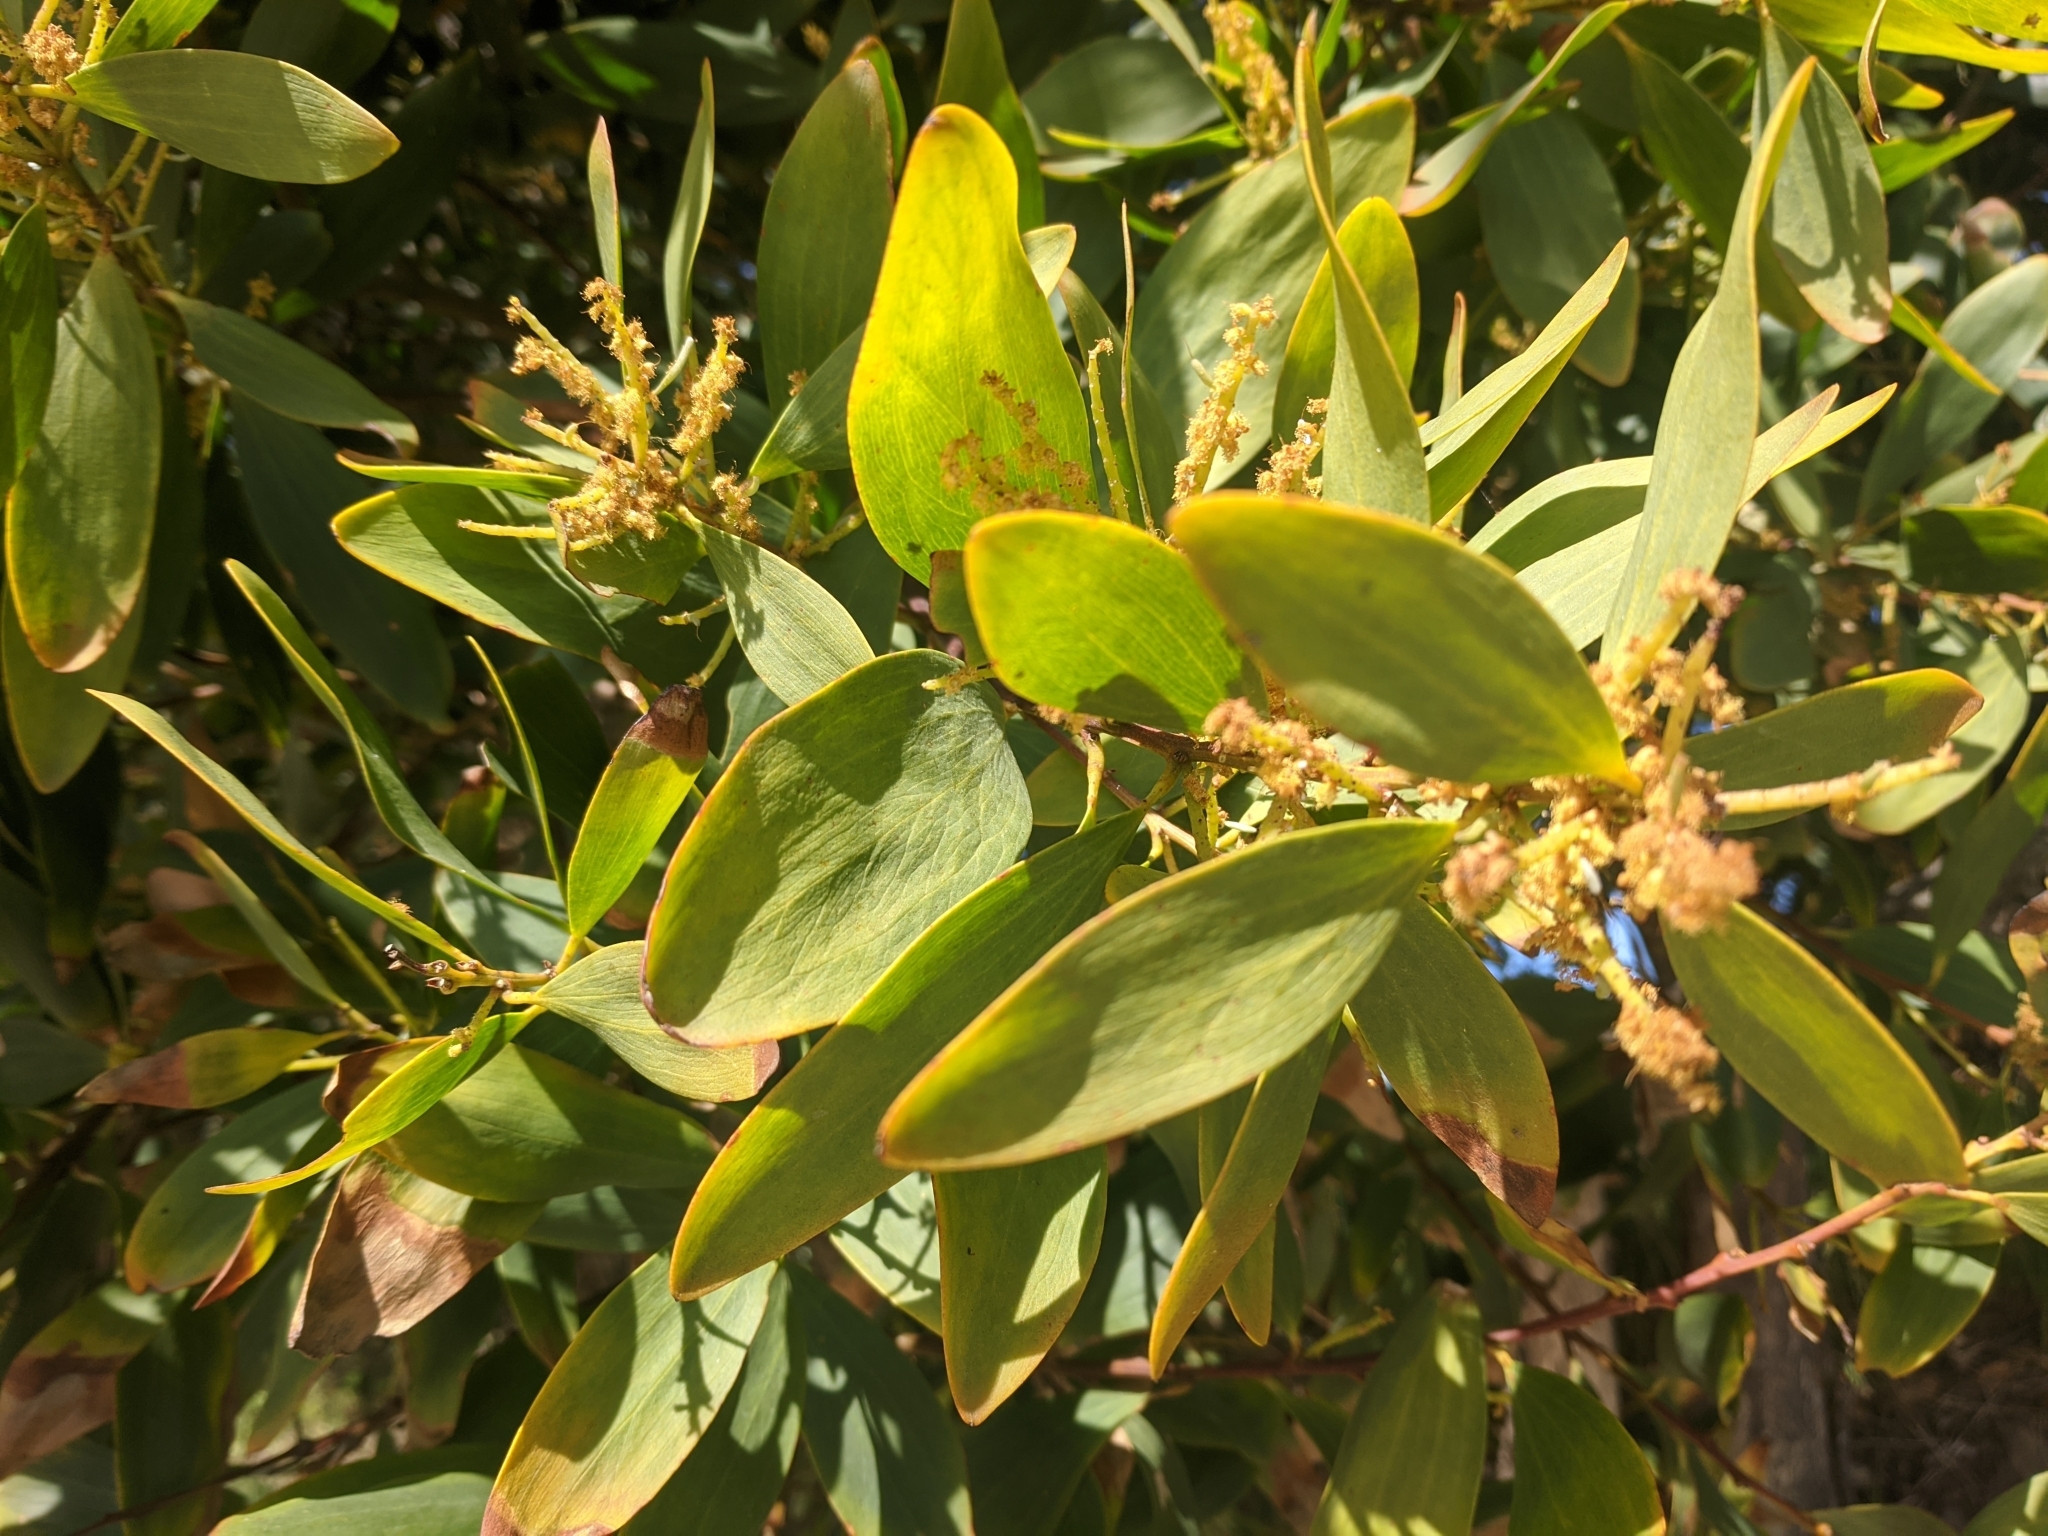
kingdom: Plantae
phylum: Tracheophyta
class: Magnoliopsida
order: Fabales
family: Fabaceae
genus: Acacia
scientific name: Acacia longifolia
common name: Sydney golden wattle
